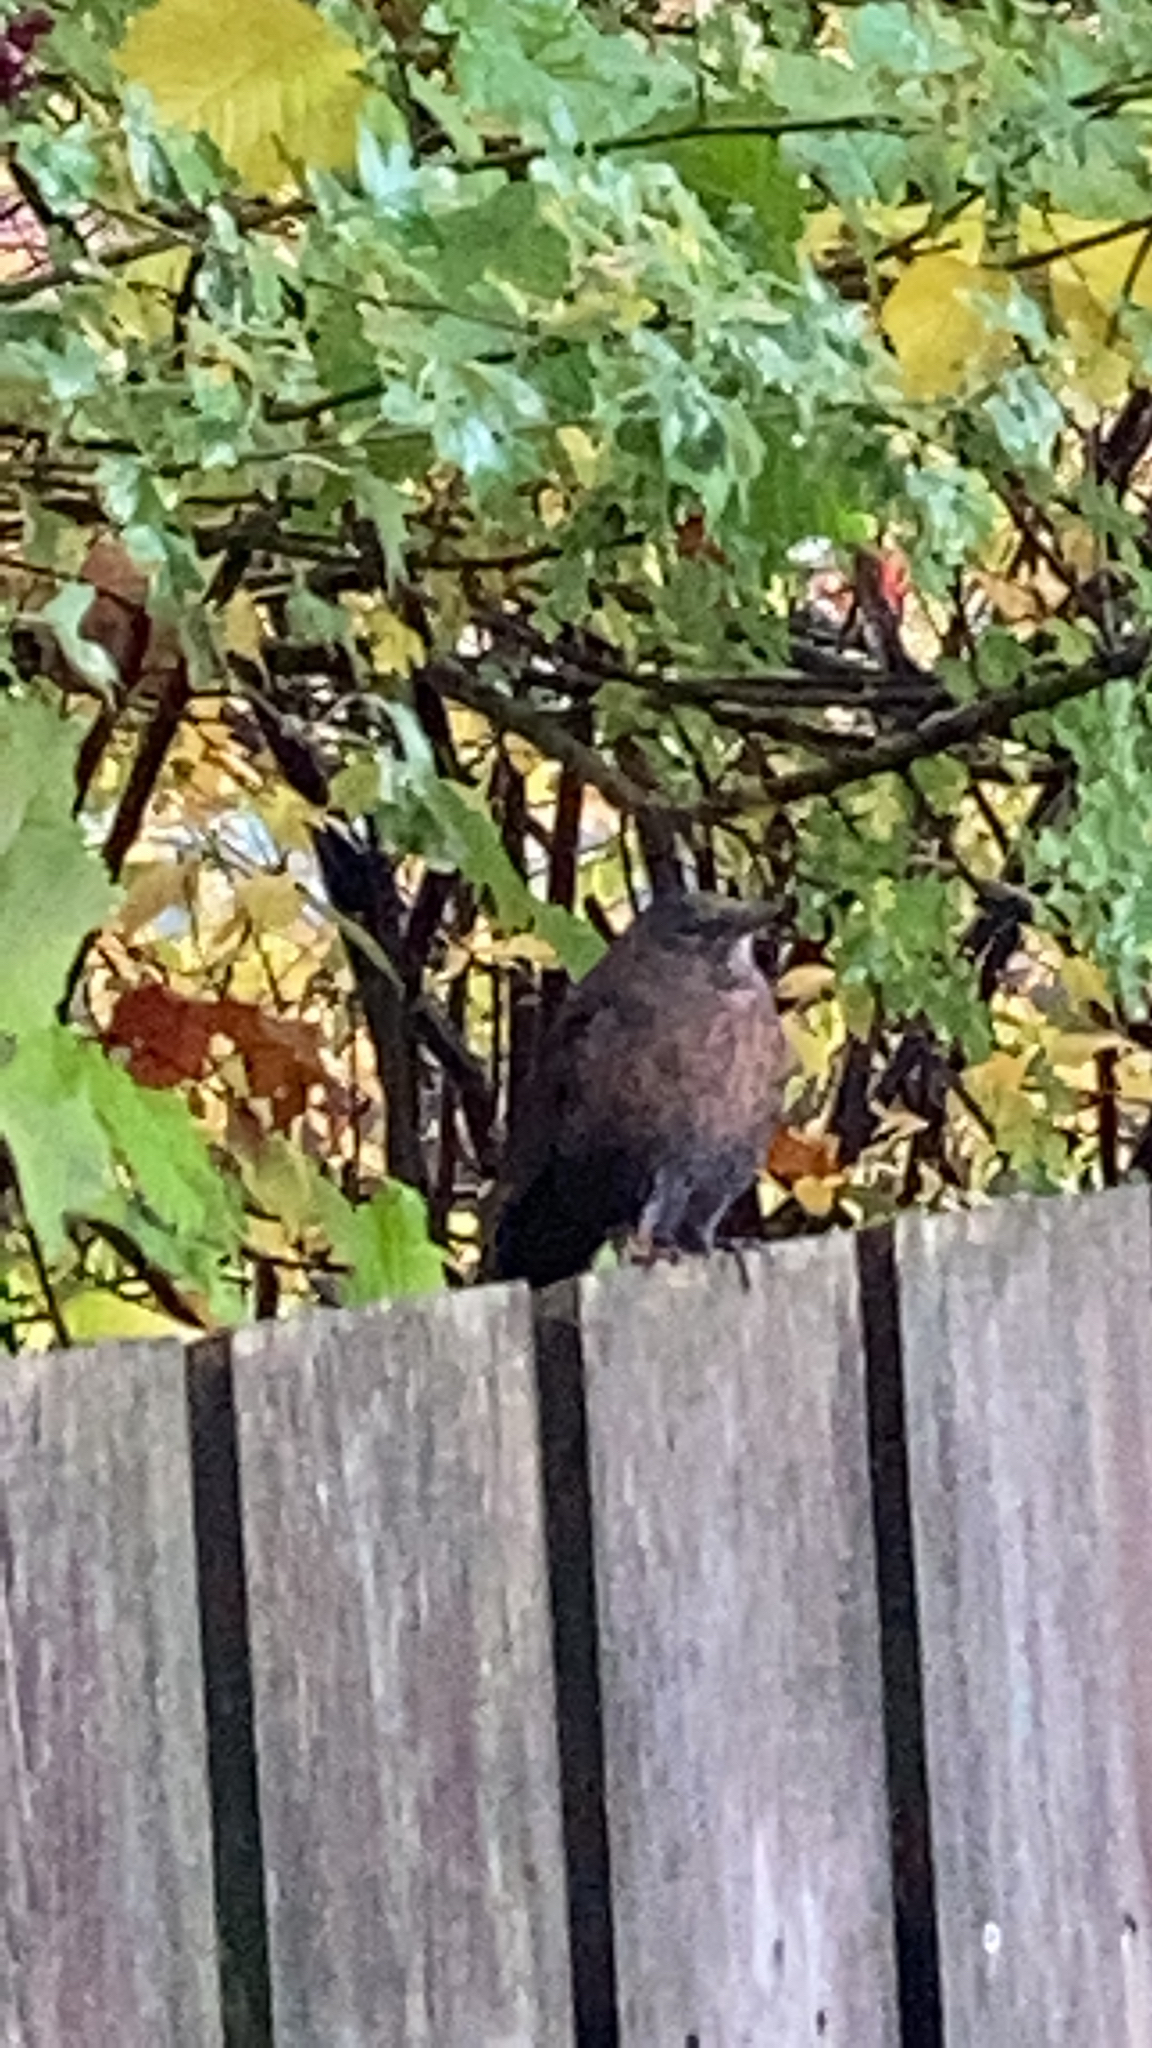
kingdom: Animalia
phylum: Chordata
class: Aves
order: Passeriformes
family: Turdidae
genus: Turdus
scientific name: Turdus merula
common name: Common blackbird
